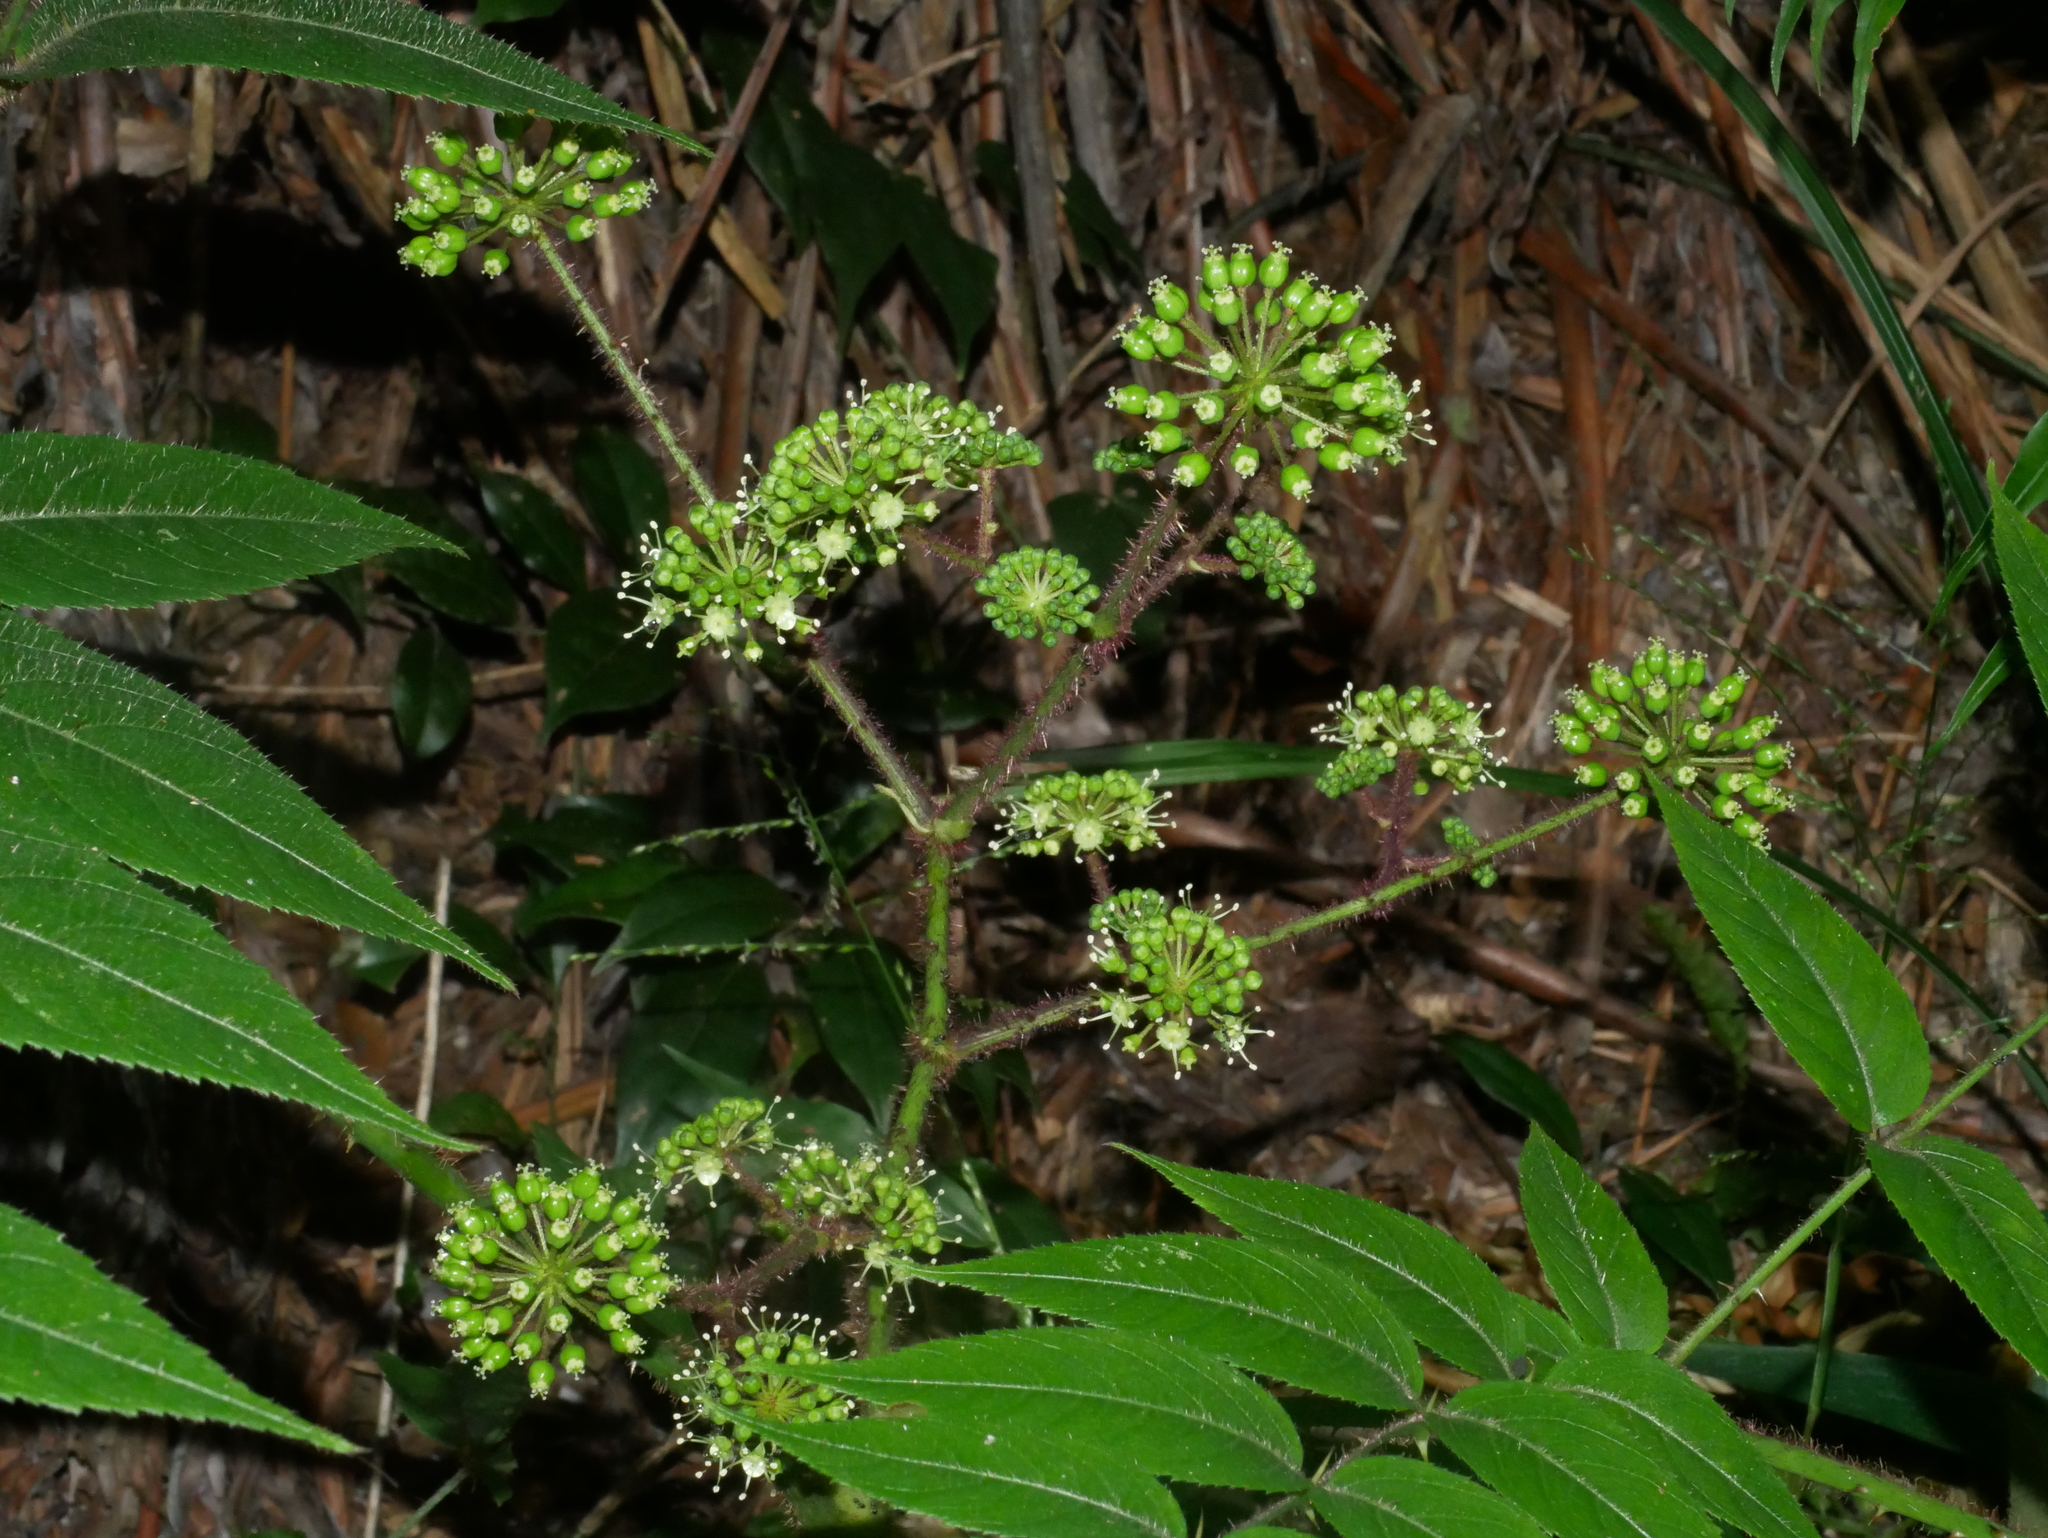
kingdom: Plantae
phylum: Tracheophyta
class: Magnoliopsida
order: Apiales
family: Araliaceae
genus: Aralia
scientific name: Aralia armata
